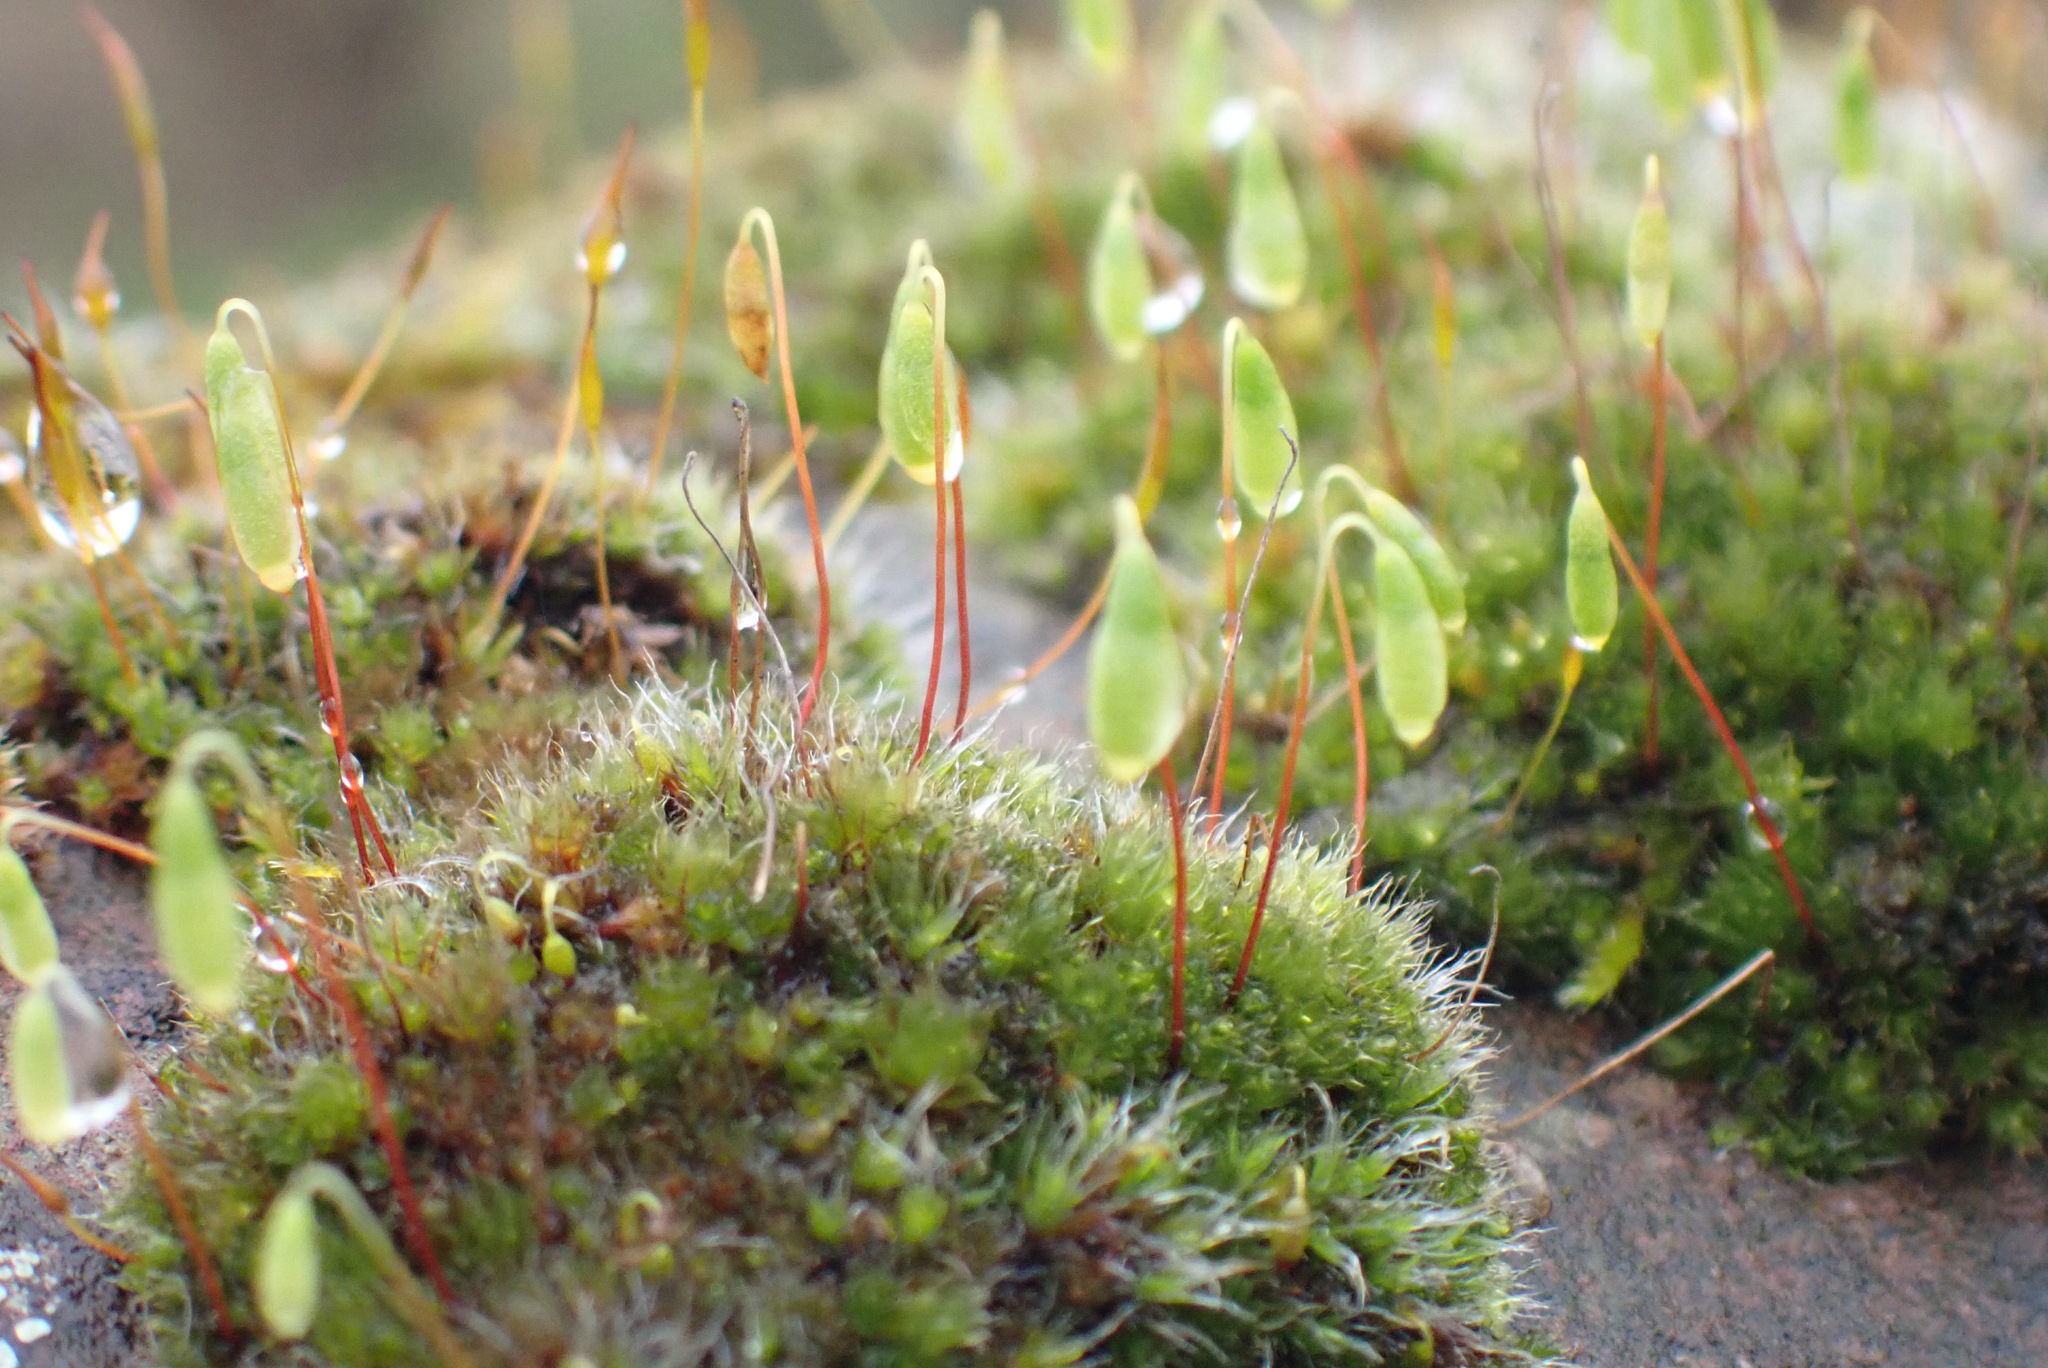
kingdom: Plantae
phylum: Bryophyta
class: Bryopsida
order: Bryales
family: Bryaceae
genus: Rosulabryum
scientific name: Rosulabryum capillare
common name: Capillary thread-moss
